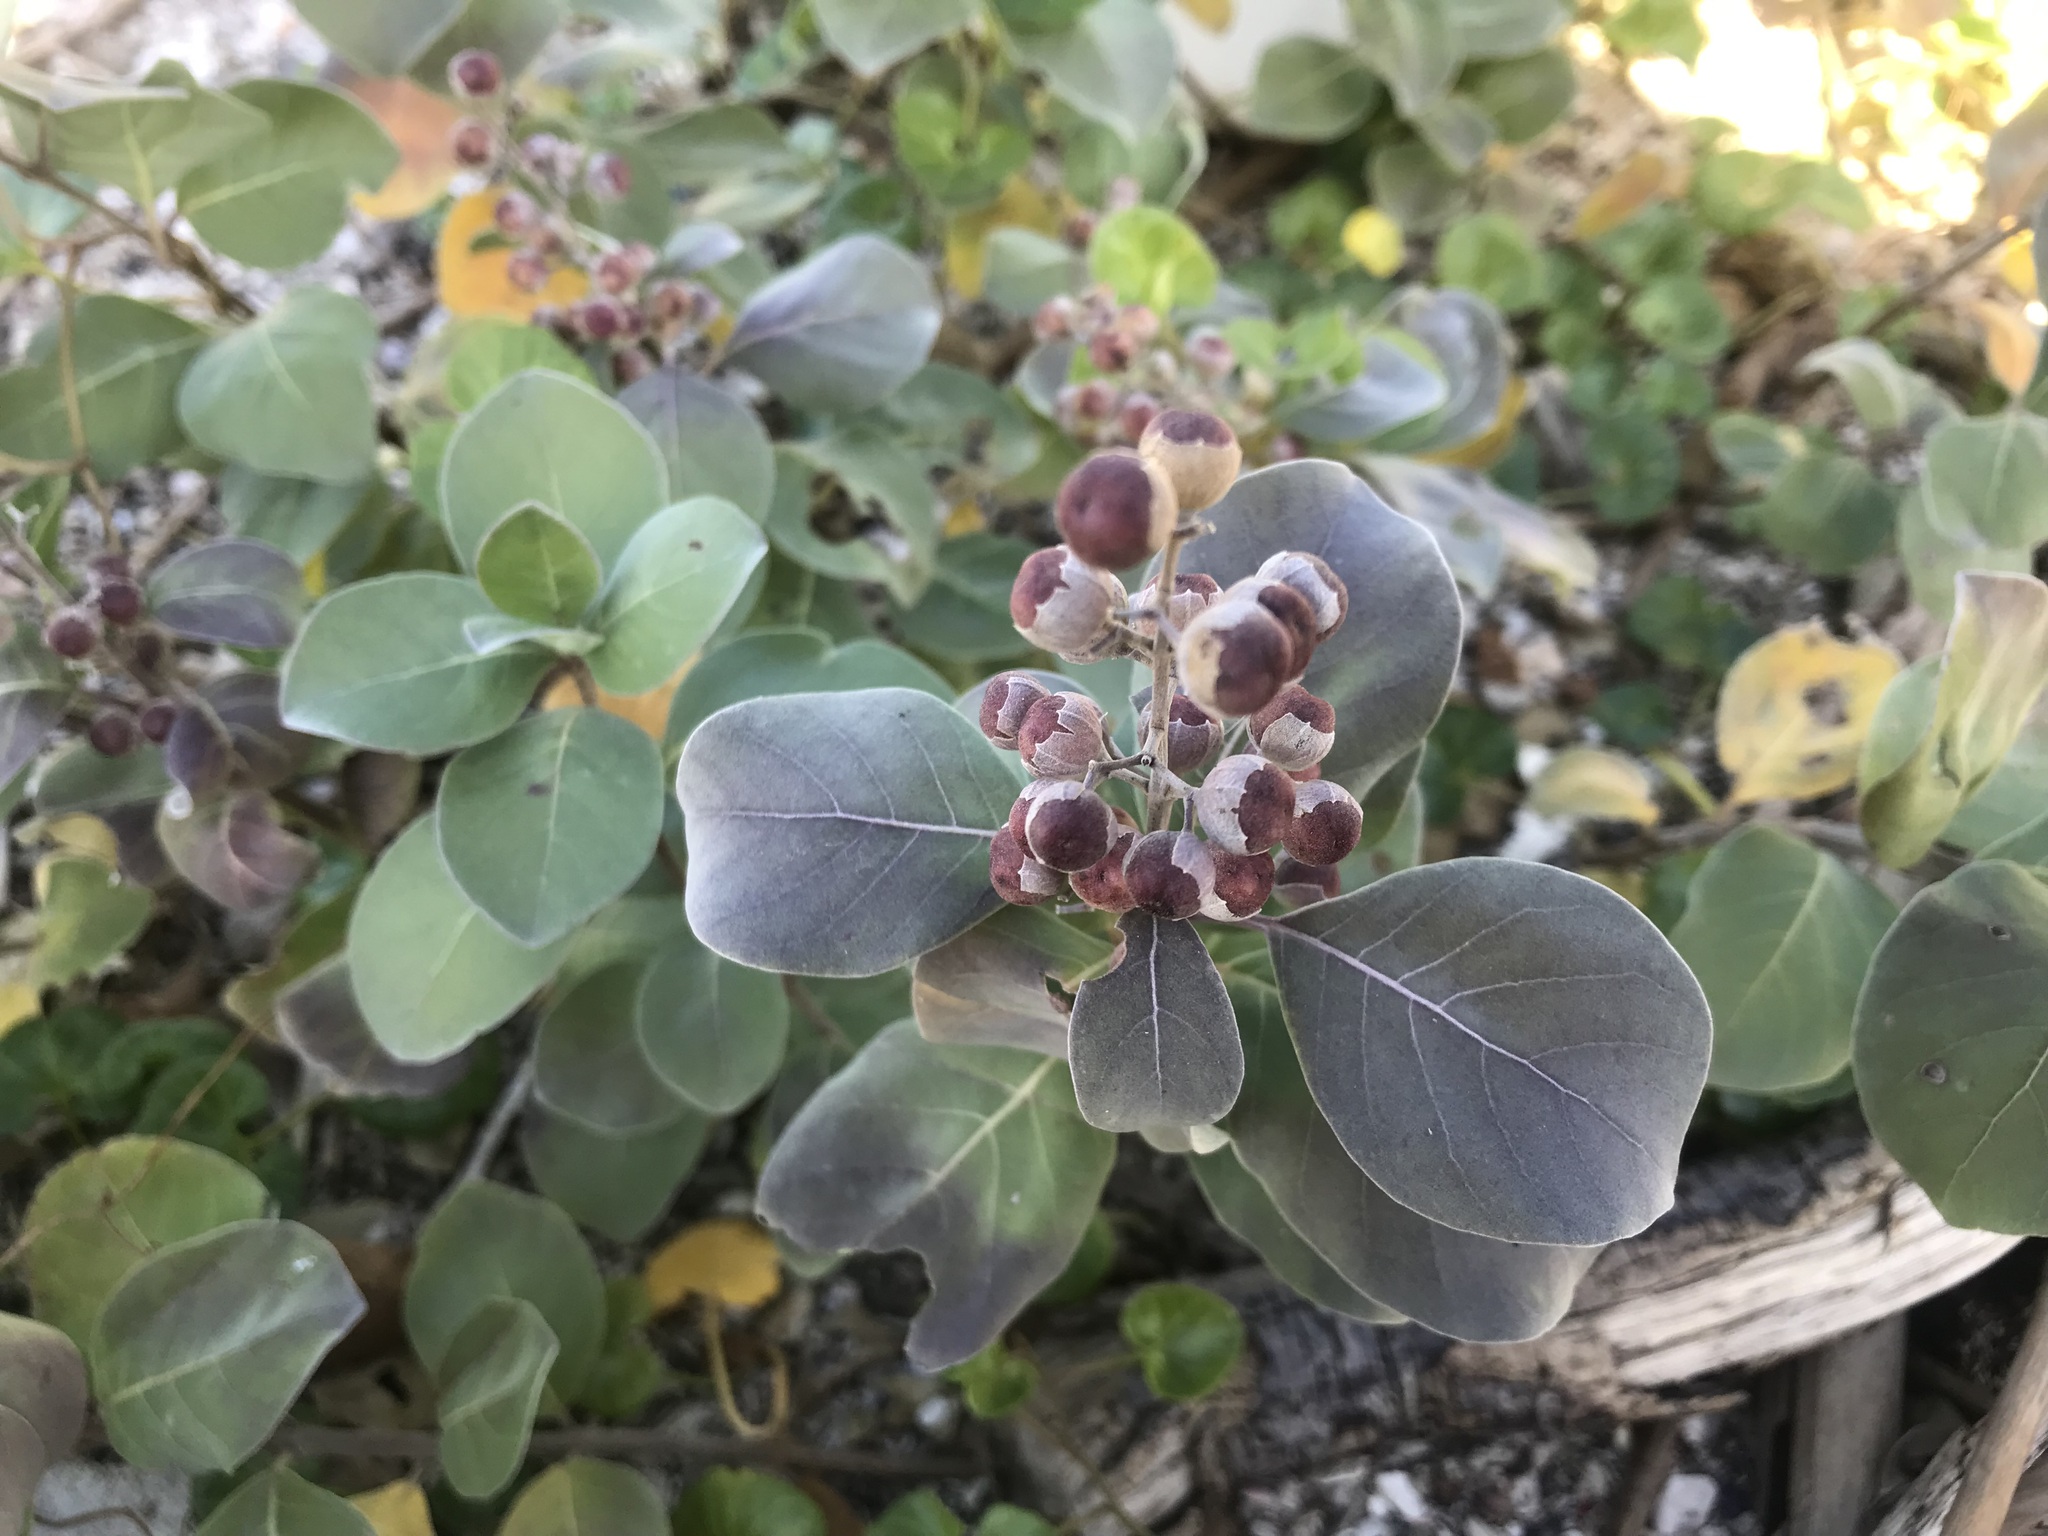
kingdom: Plantae
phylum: Tracheophyta
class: Magnoliopsida
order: Lamiales
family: Lamiaceae
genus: Vitex
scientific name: Vitex rotundifolia
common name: Beach vitex
